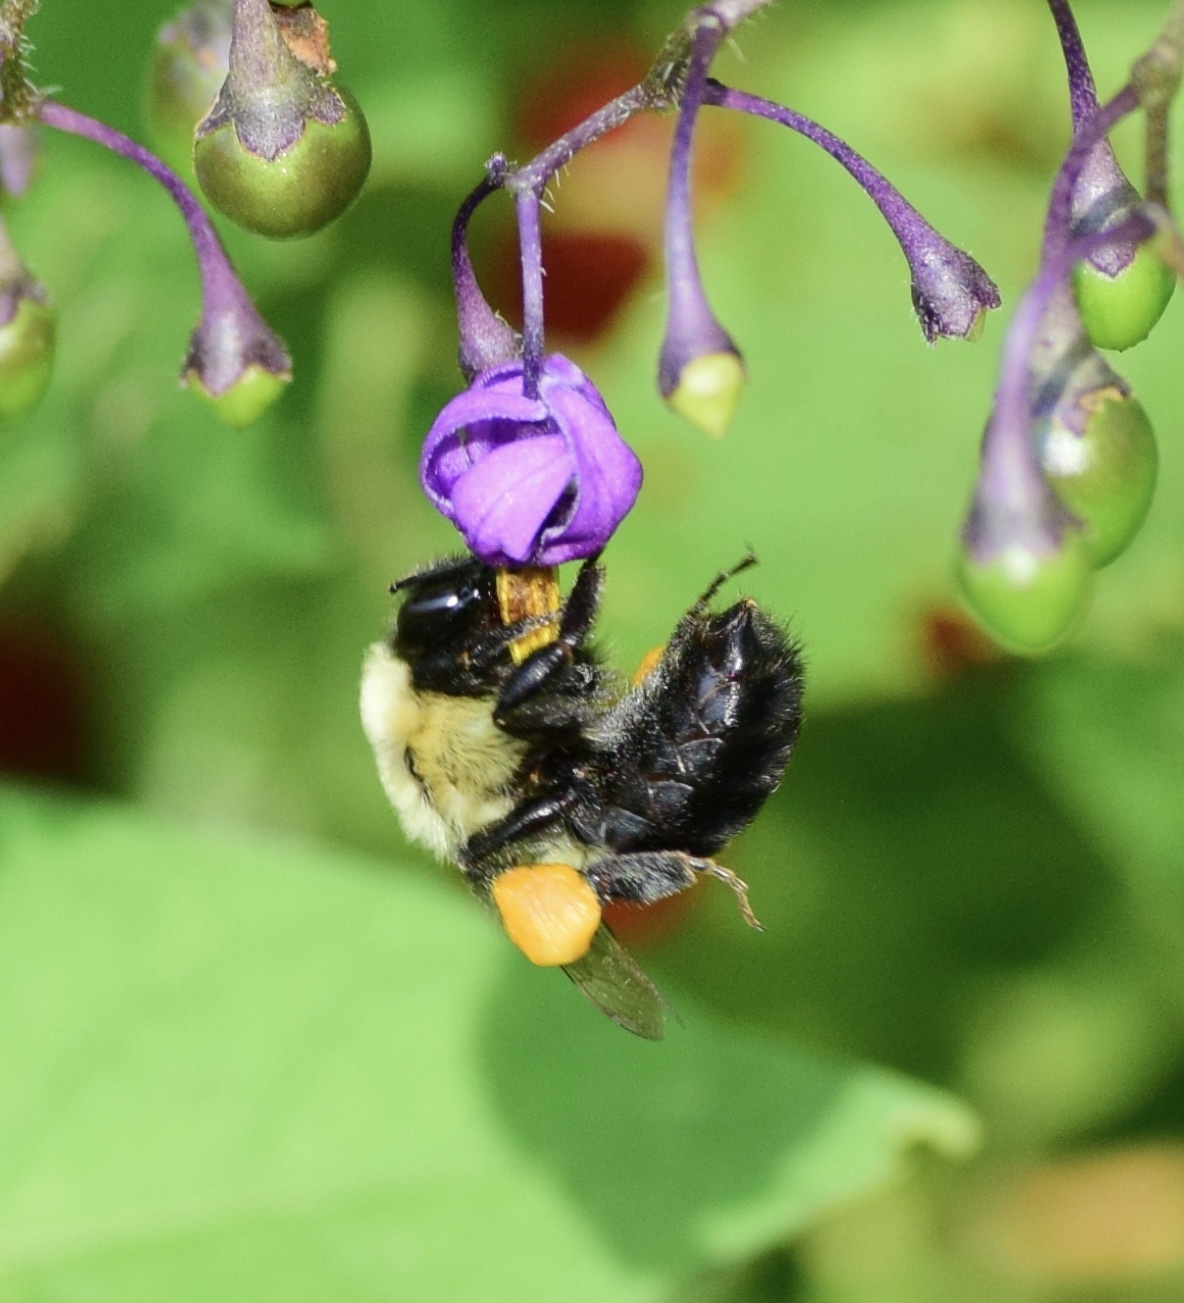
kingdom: Animalia
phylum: Arthropoda
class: Insecta
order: Hymenoptera
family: Apidae
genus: Bombus
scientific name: Bombus impatiens
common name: Common eastern bumble bee
